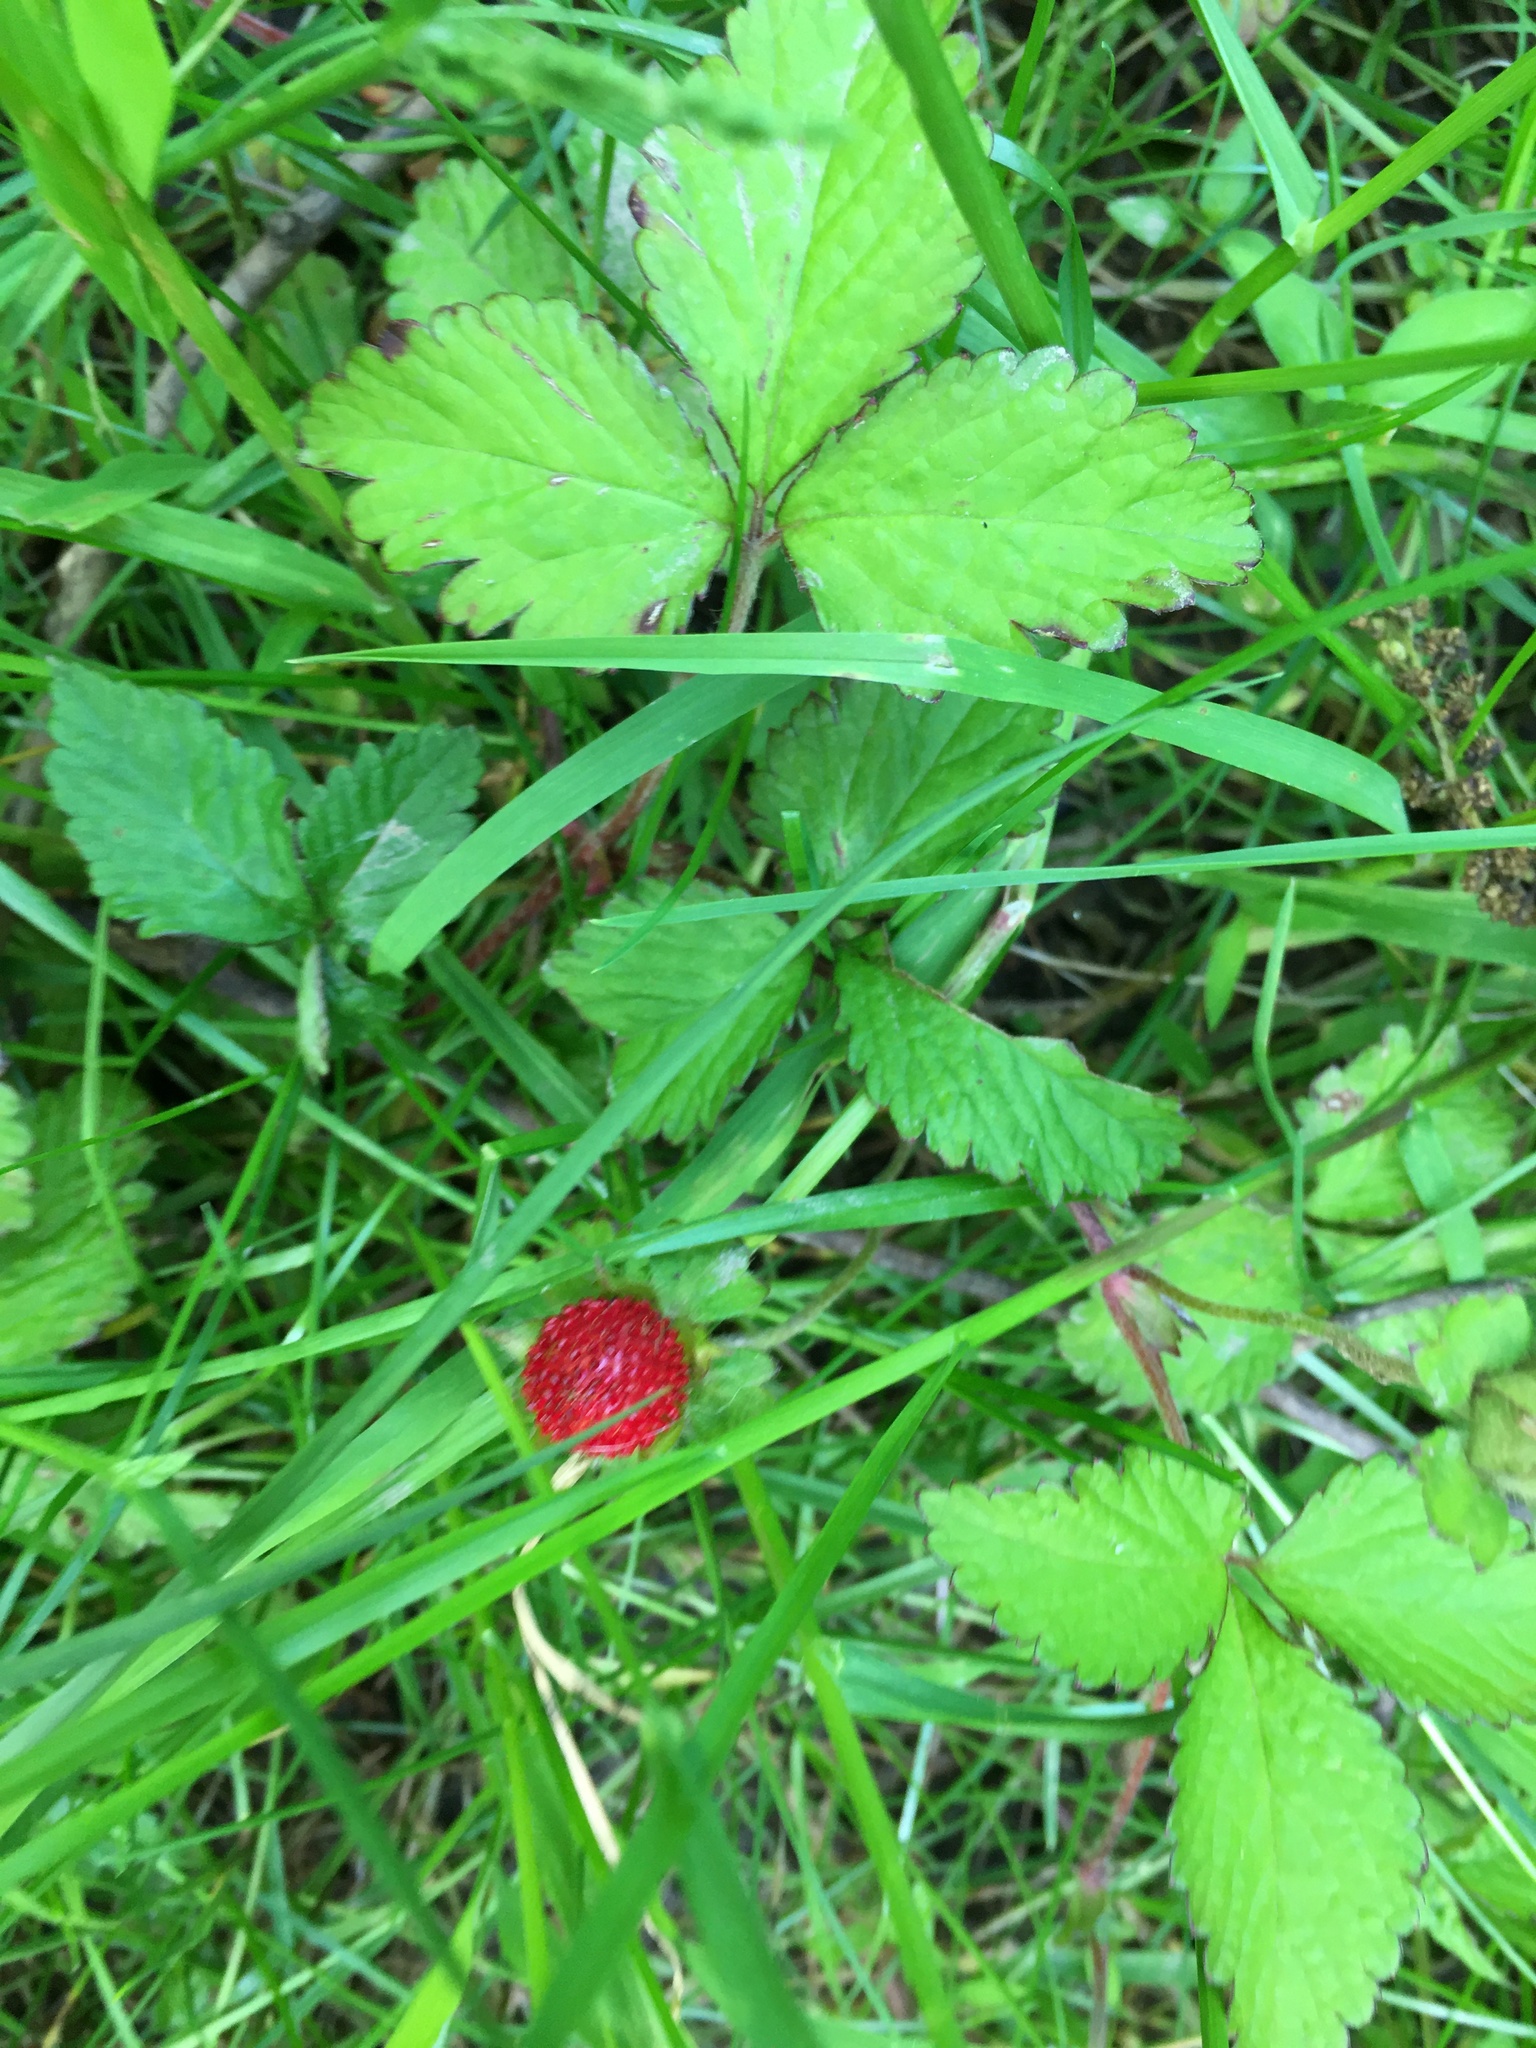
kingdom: Plantae
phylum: Tracheophyta
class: Magnoliopsida
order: Rosales
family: Rosaceae
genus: Potentilla
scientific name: Potentilla indica
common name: Yellow-flowered strawberry
